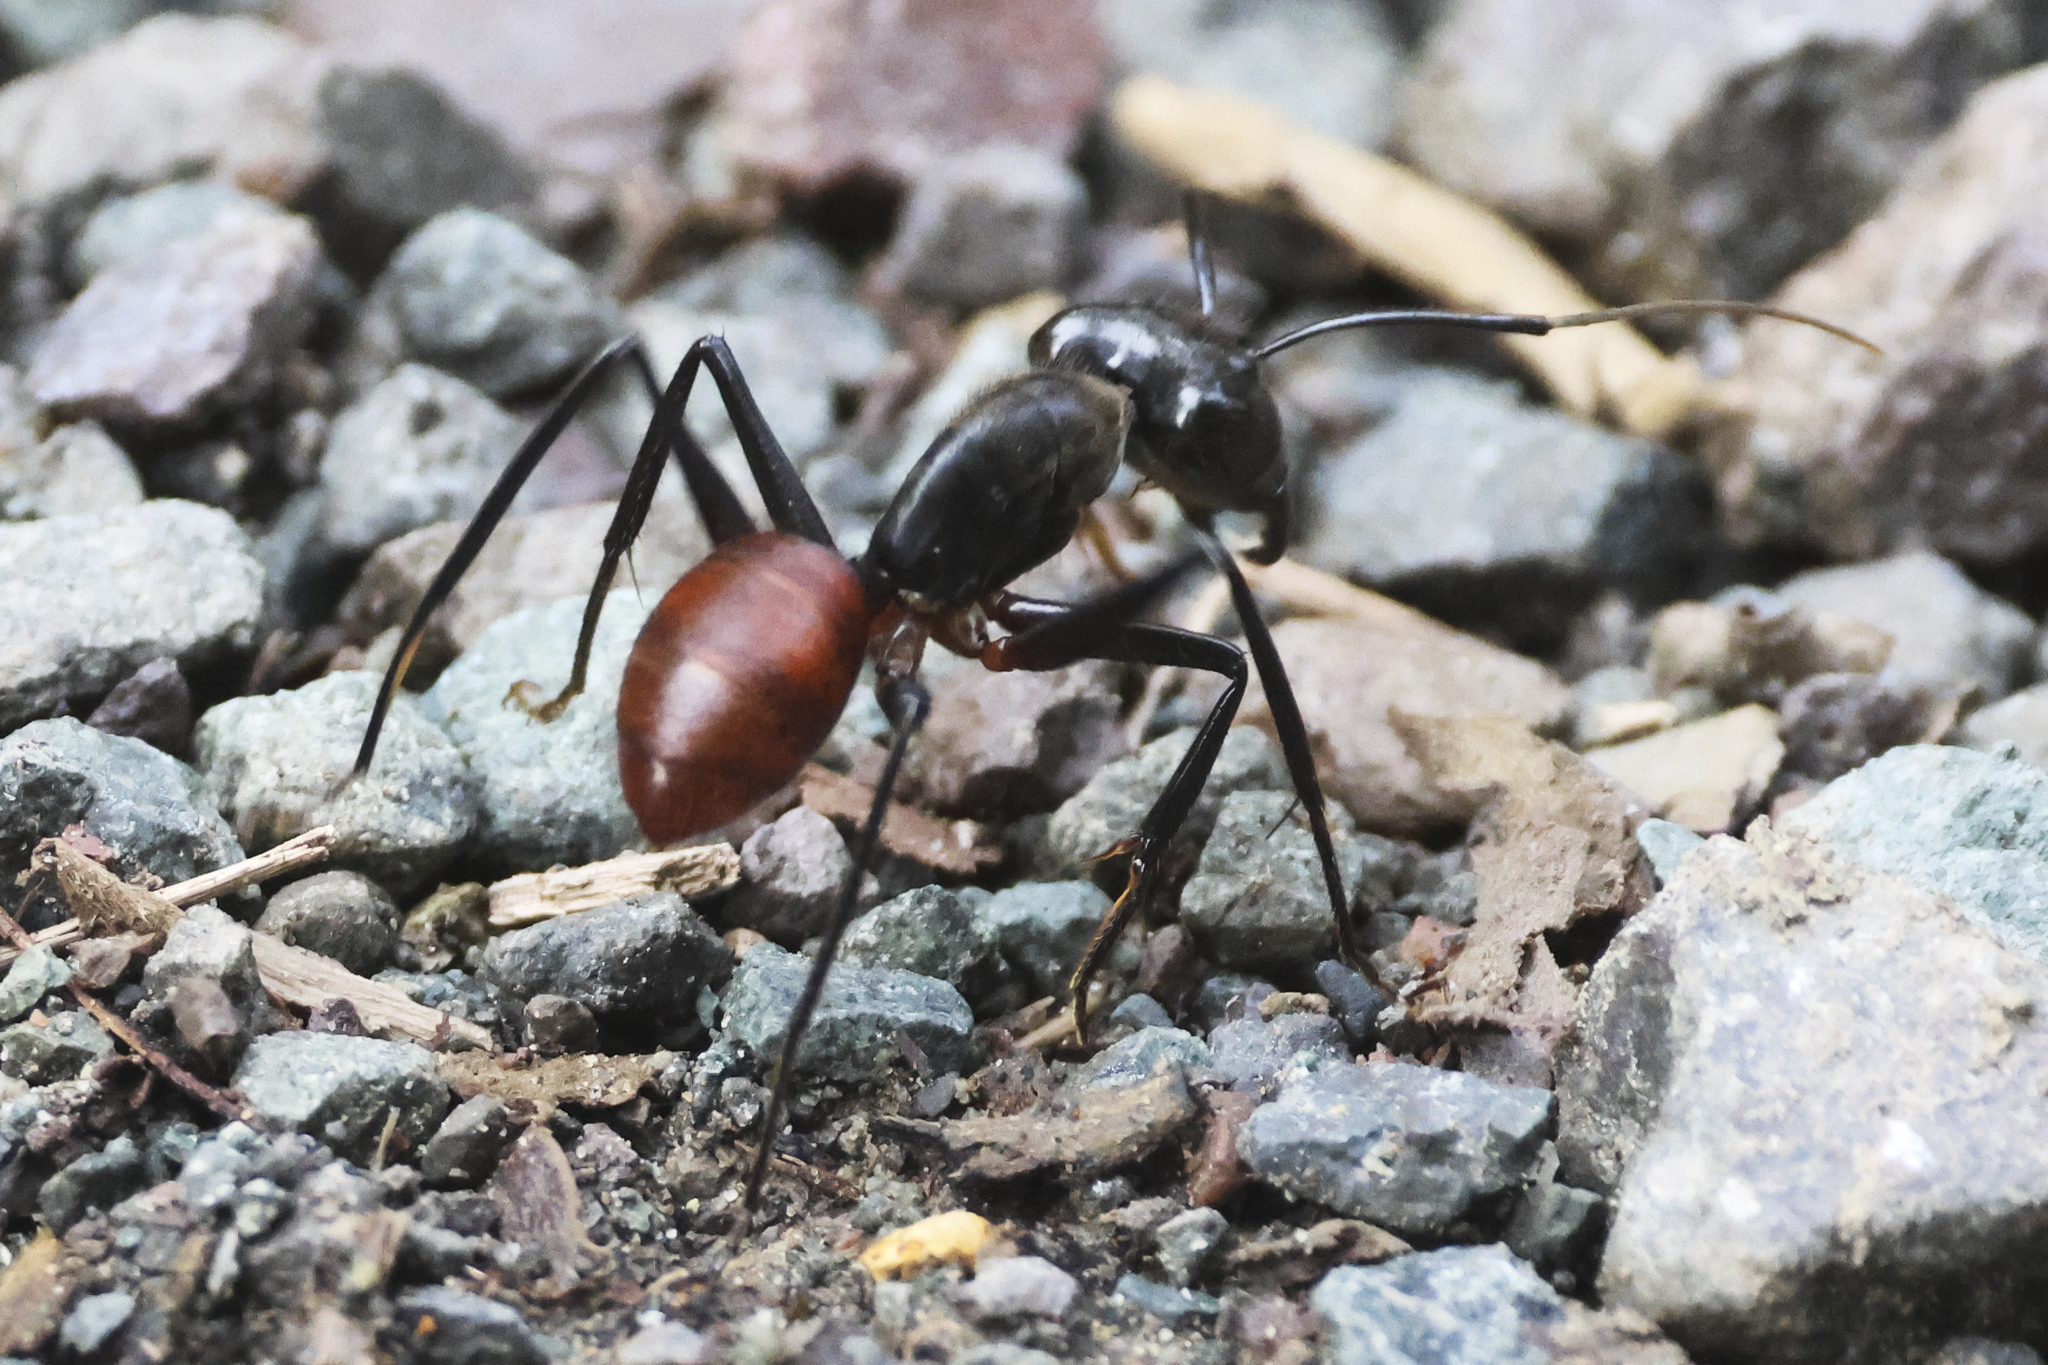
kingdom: Animalia
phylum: Arthropoda
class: Insecta
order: Hymenoptera
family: Formicidae
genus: Dinomyrmex
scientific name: Dinomyrmex
